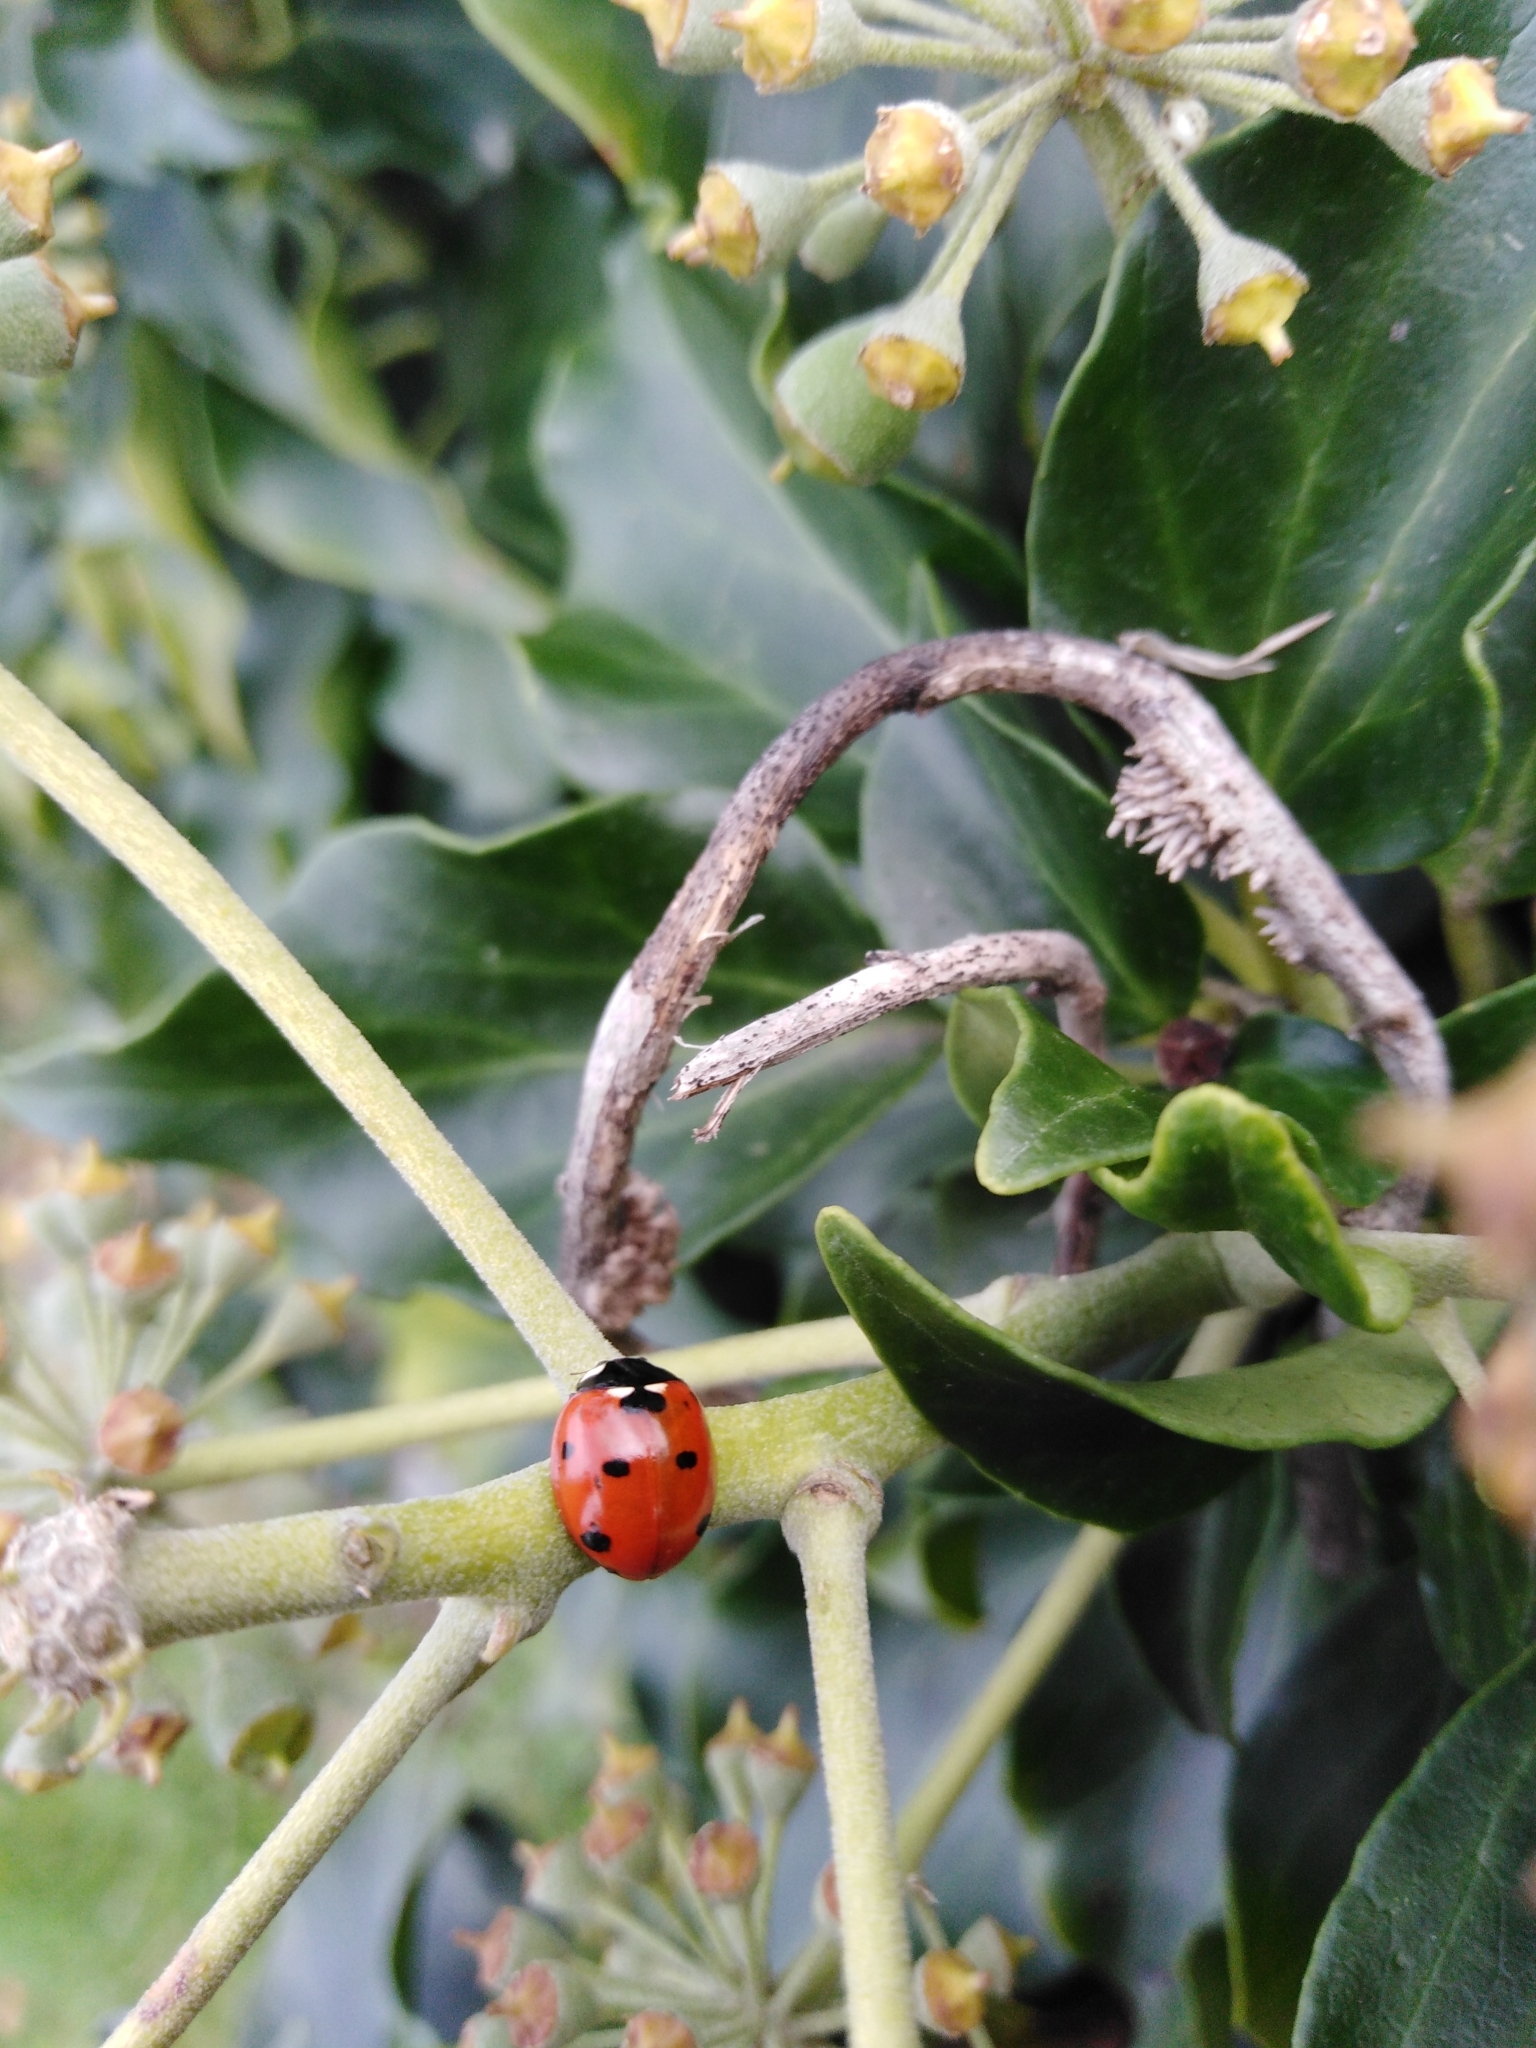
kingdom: Animalia
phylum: Arthropoda
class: Insecta
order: Coleoptera
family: Coccinellidae
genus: Coccinella
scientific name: Coccinella septempunctata
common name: Sevenspotted lady beetle
